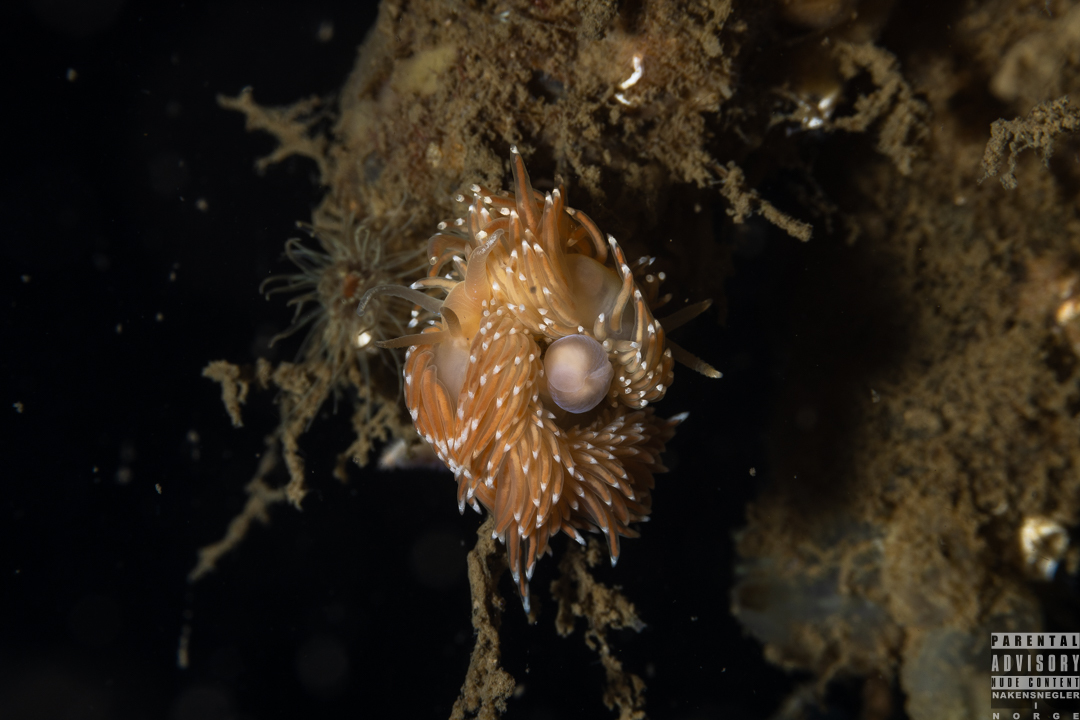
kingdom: Animalia
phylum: Mollusca
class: Gastropoda
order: Nudibranchia
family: Facelinidae
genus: Facelina
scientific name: Facelina bostoniensis
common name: Boston facelina
